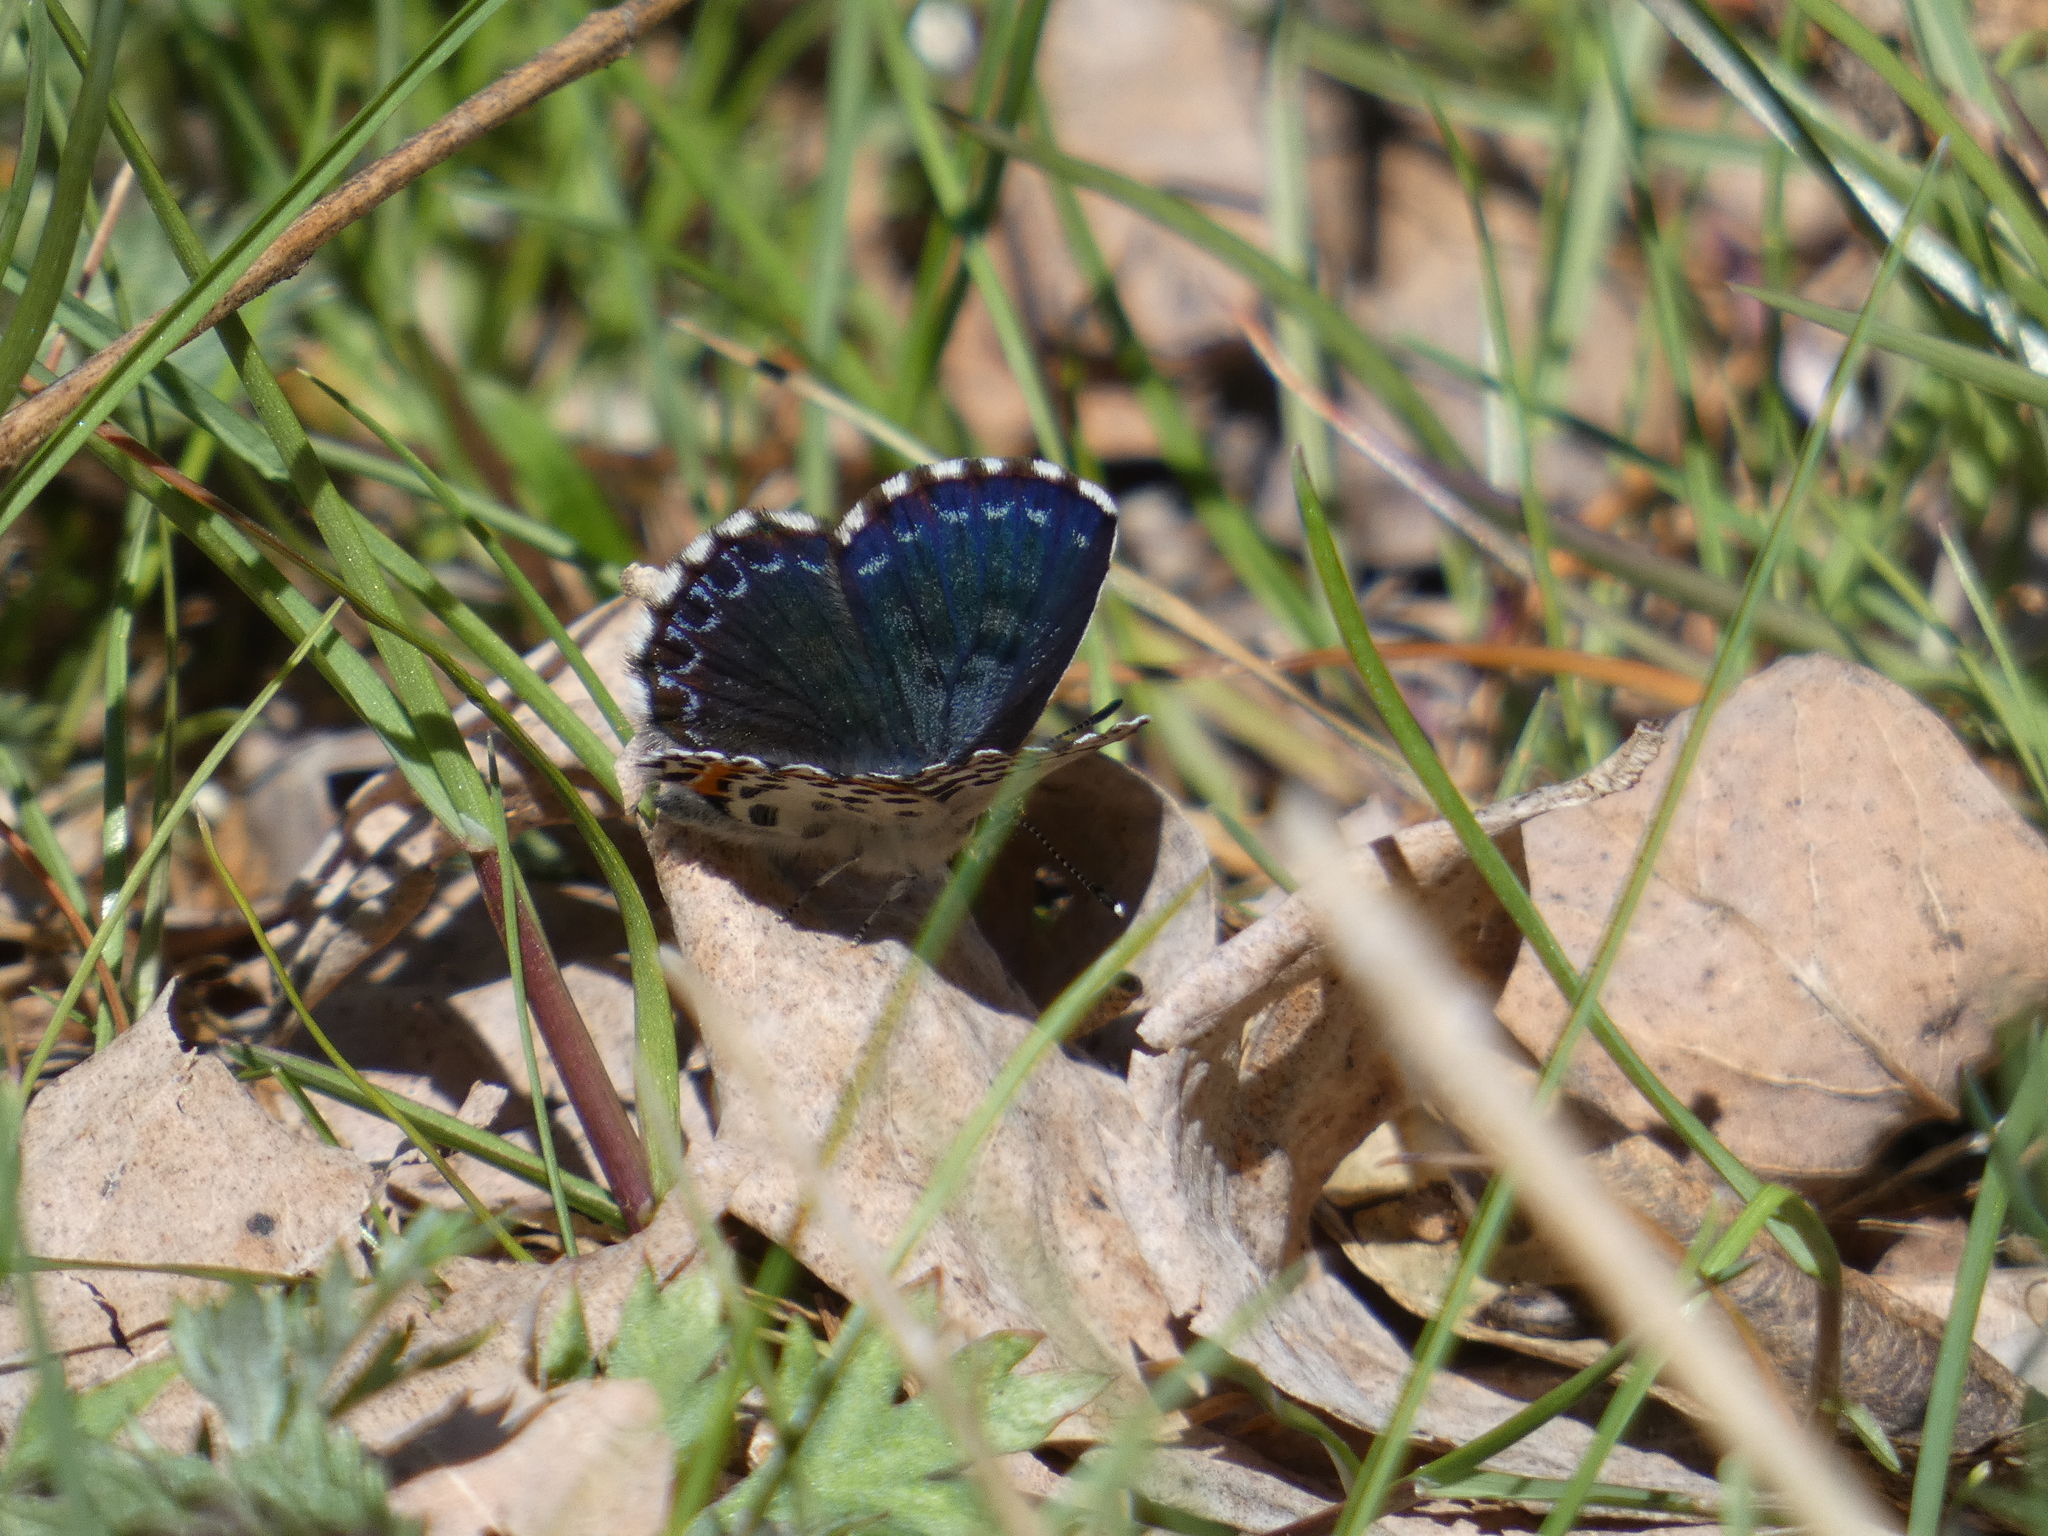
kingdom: Animalia
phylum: Arthropoda
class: Insecta
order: Lepidoptera
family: Lycaenidae
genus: Scolitantides
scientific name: Scolitantides orion
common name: Chequered blue
